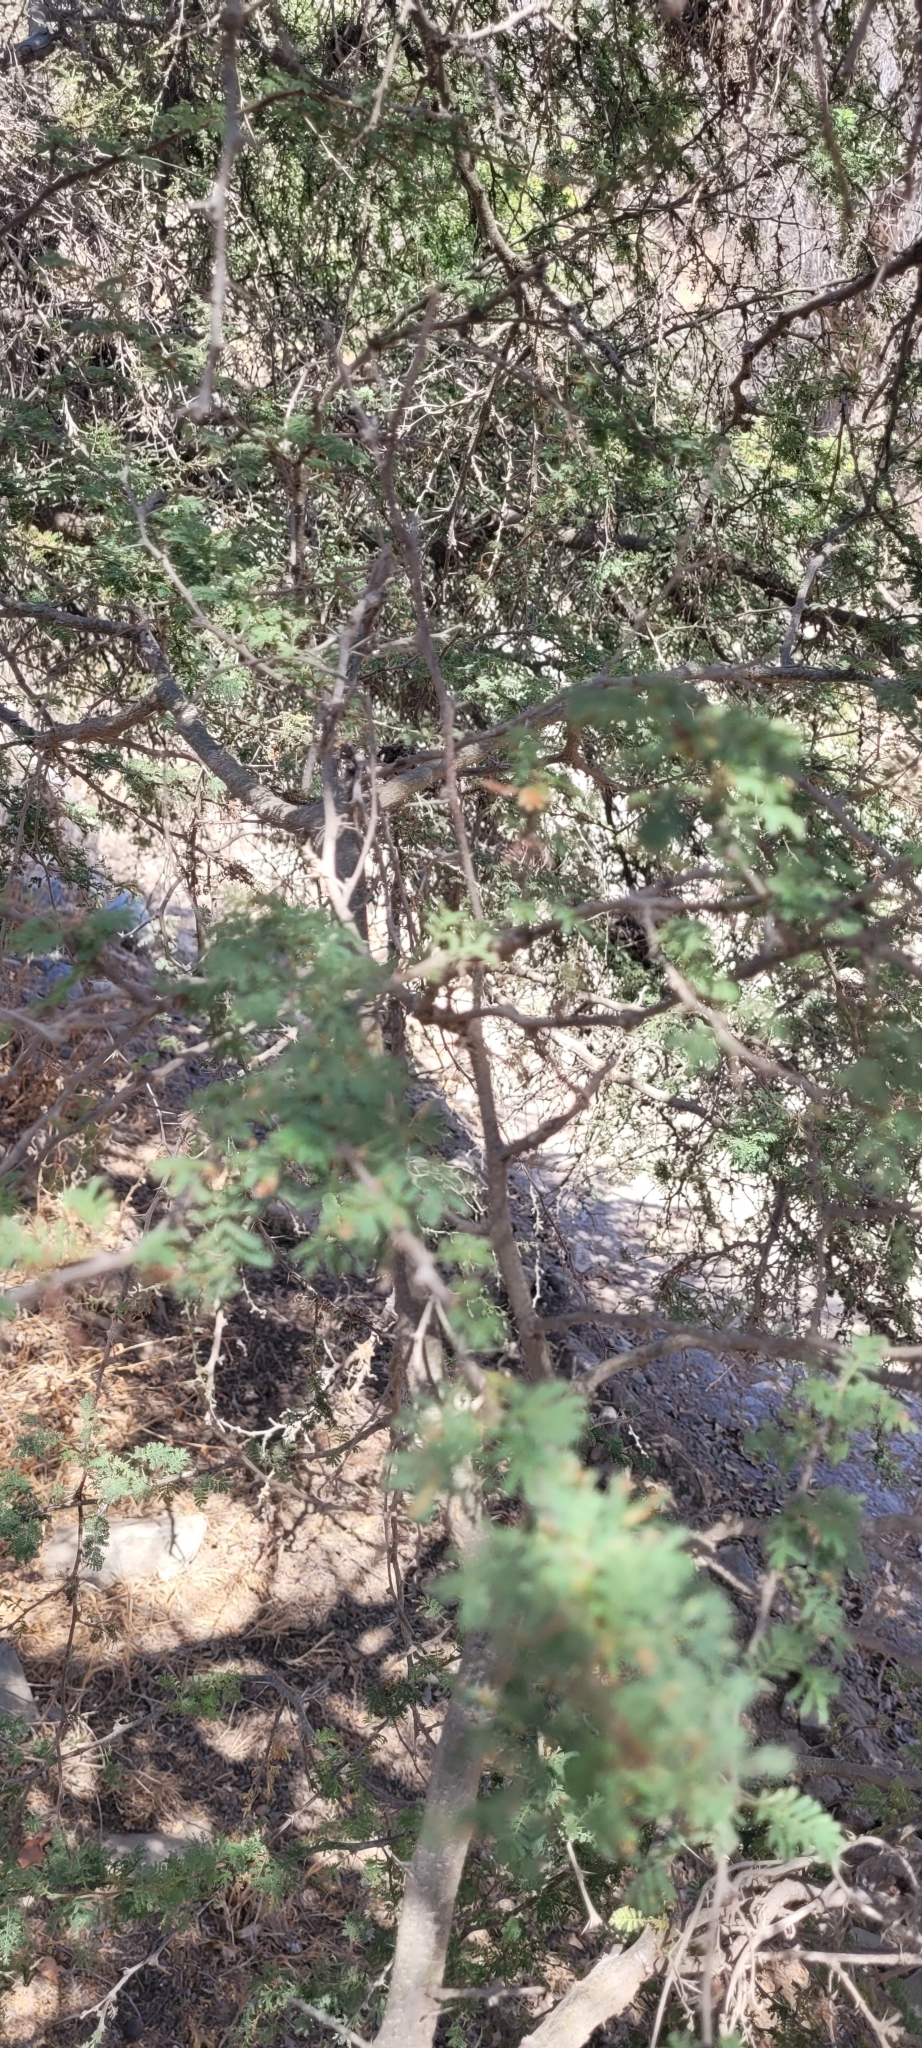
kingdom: Plantae
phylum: Tracheophyta
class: Magnoliopsida
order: Fabales
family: Fabaceae
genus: Vachellia
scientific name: Vachellia caven
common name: Roman cassie
